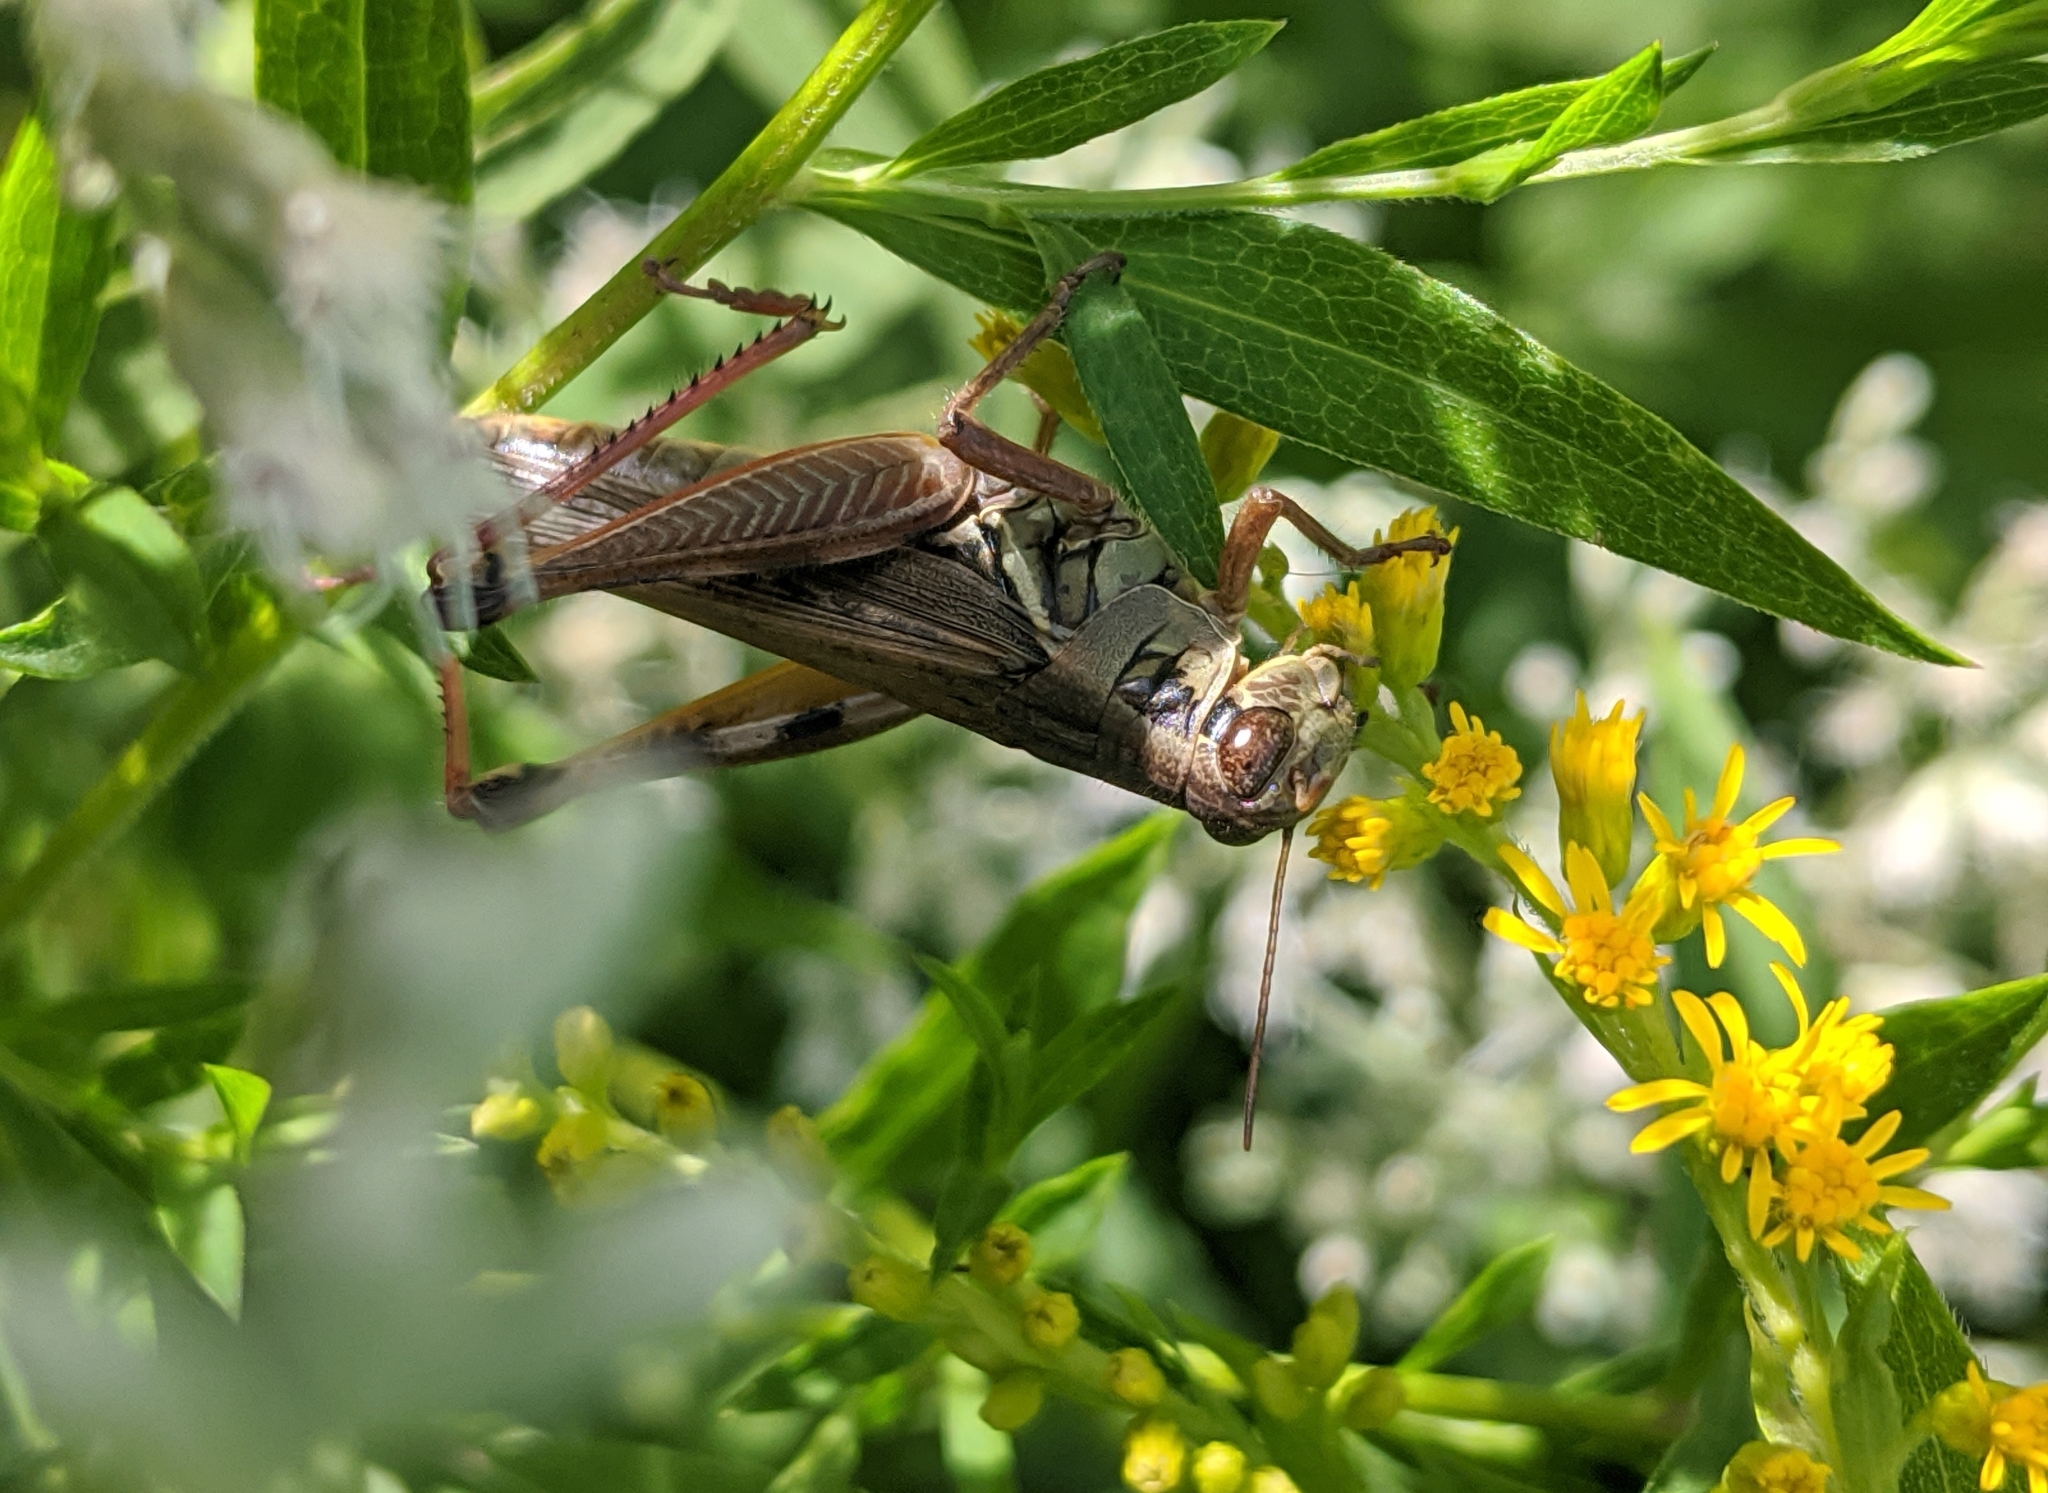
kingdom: Animalia
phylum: Arthropoda
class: Insecta
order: Orthoptera
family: Acrididae
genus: Melanoplus
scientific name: Melanoplus femurrubrum
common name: Red-legged grasshopper
